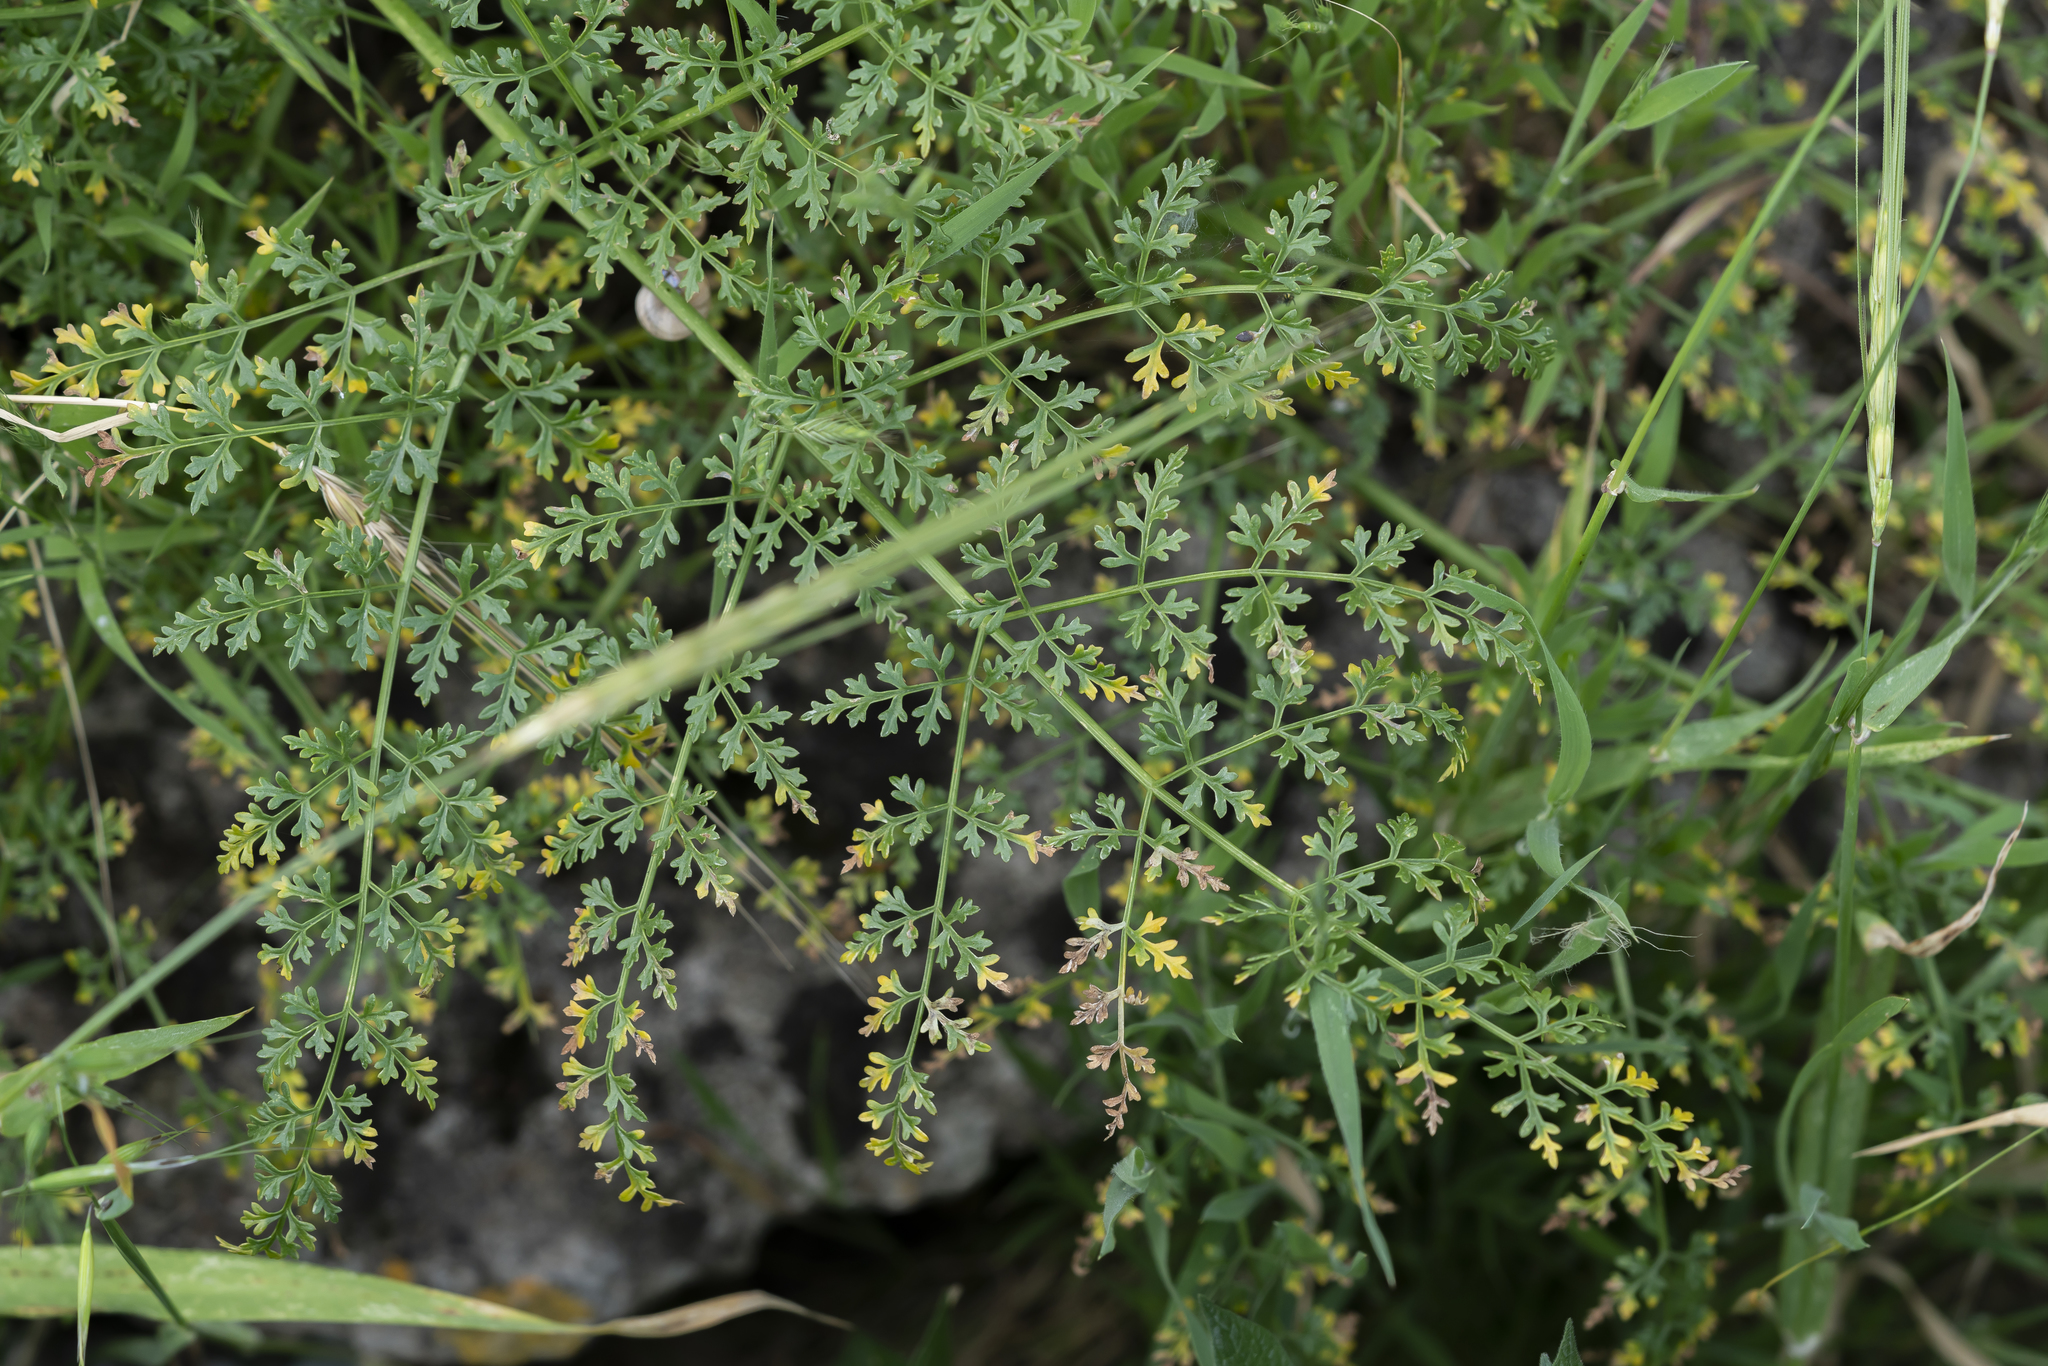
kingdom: Plantae
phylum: Tracheophyta
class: Magnoliopsida
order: Apiales
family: Apiaceae
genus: Ferula
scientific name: Ferula tingitana
